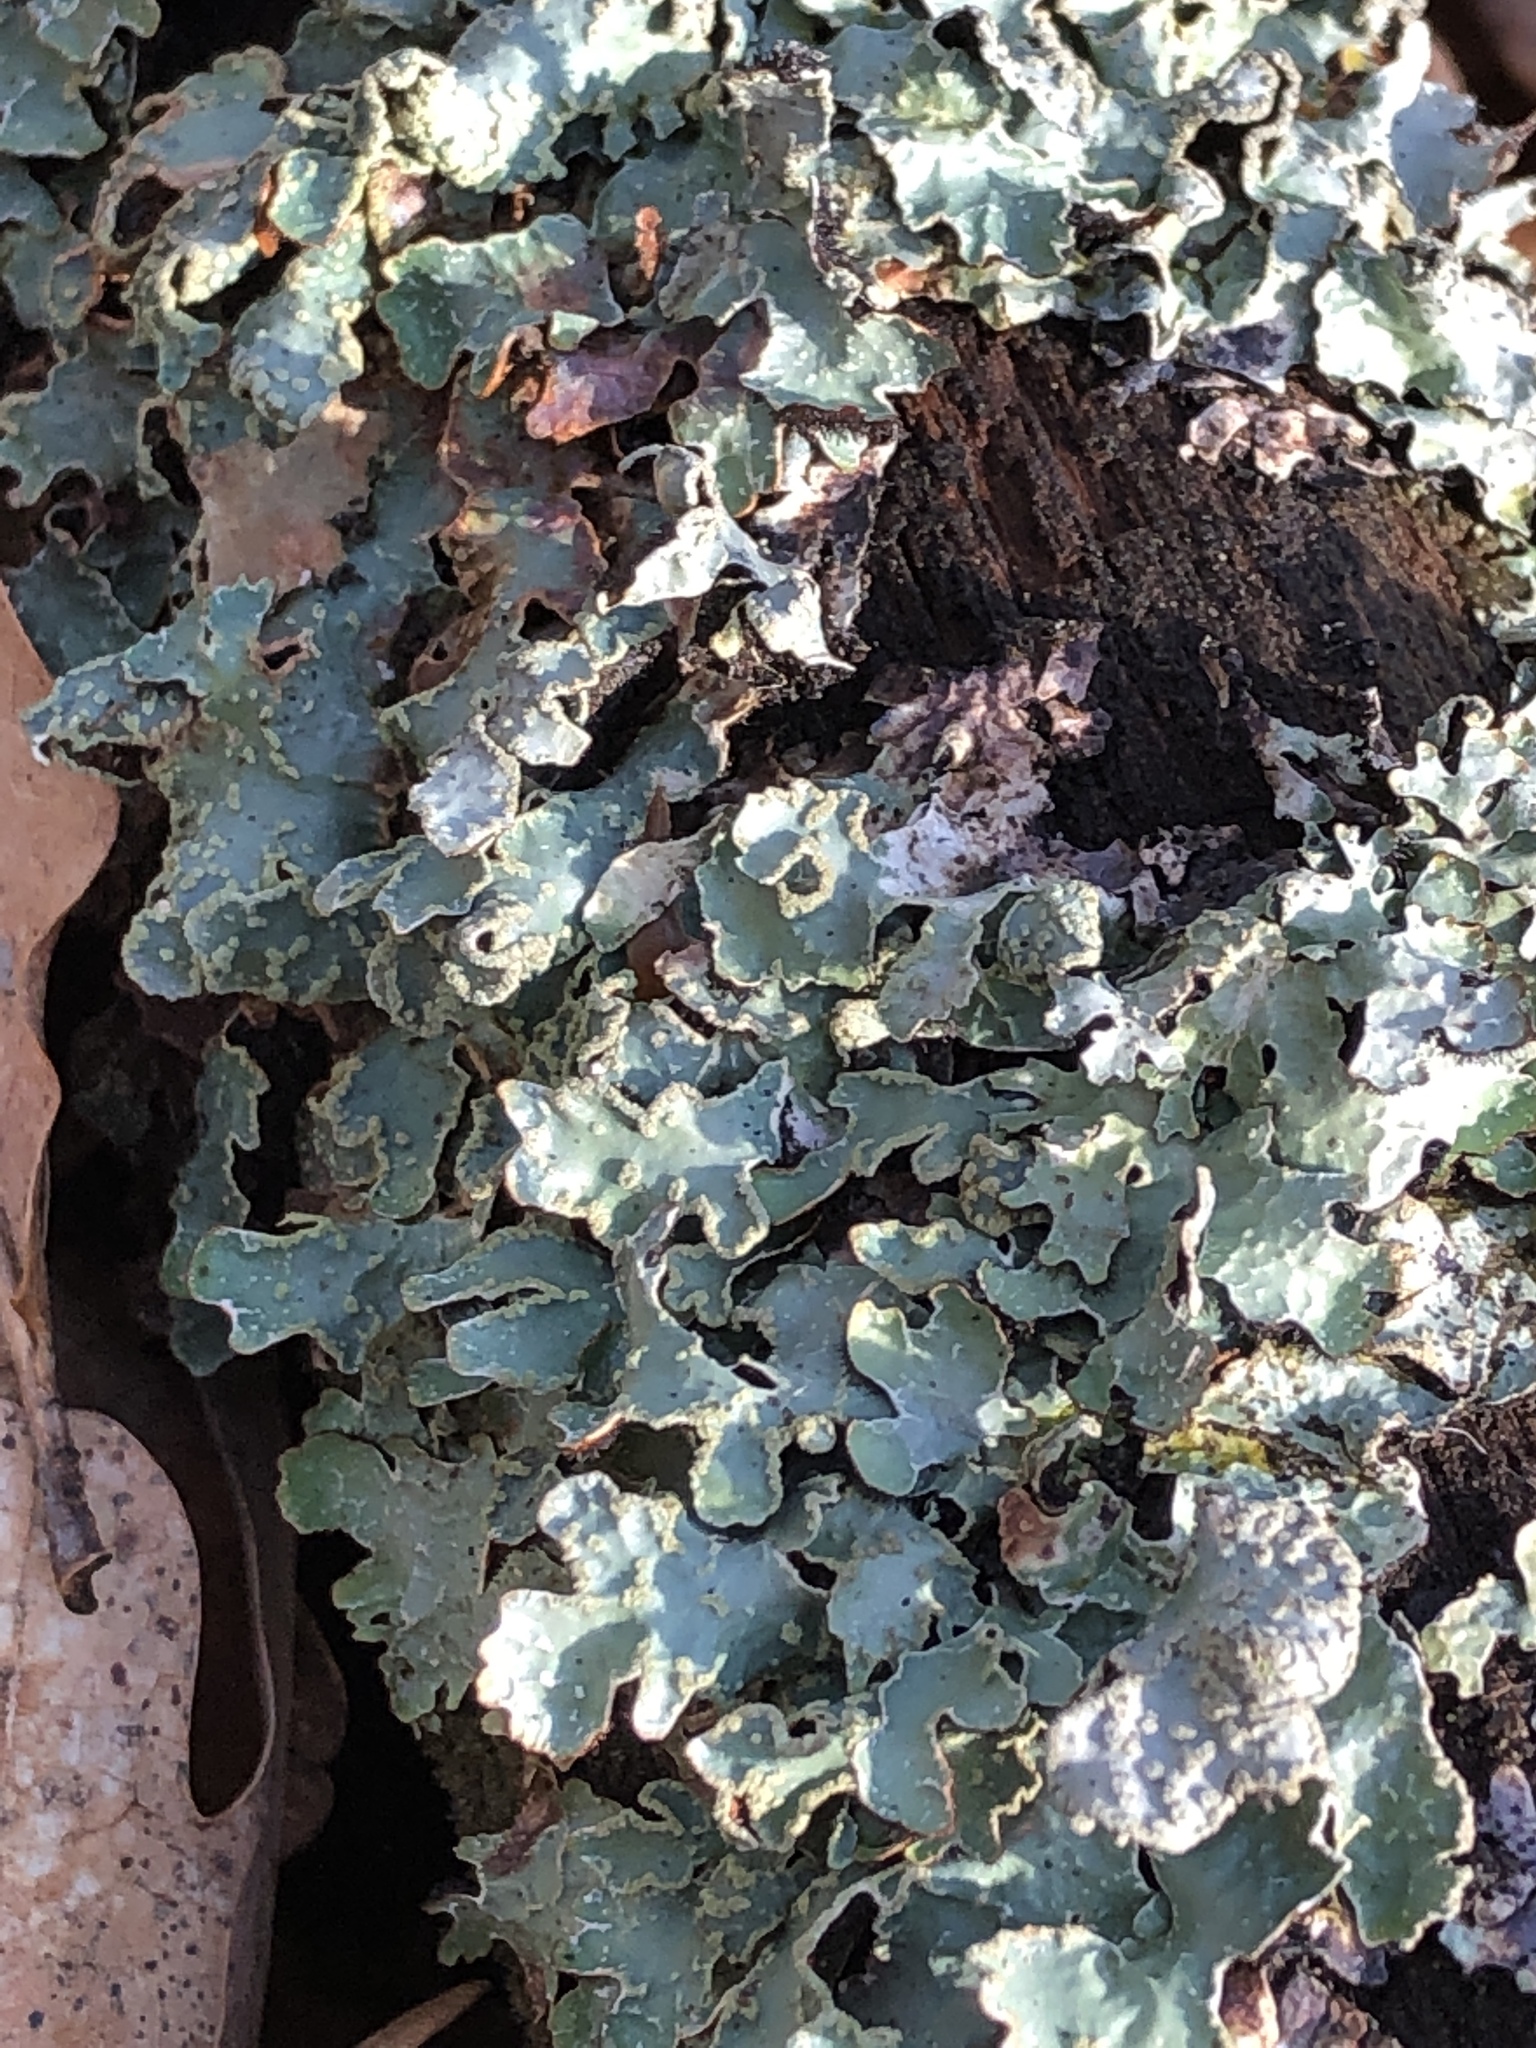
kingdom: Fungi
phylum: Ascomycota
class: Lecanoromycetes
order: Lecanorales
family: Parmeliaceae
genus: Parmelia
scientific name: Parmelia sulcata
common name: Netted shield lichen
